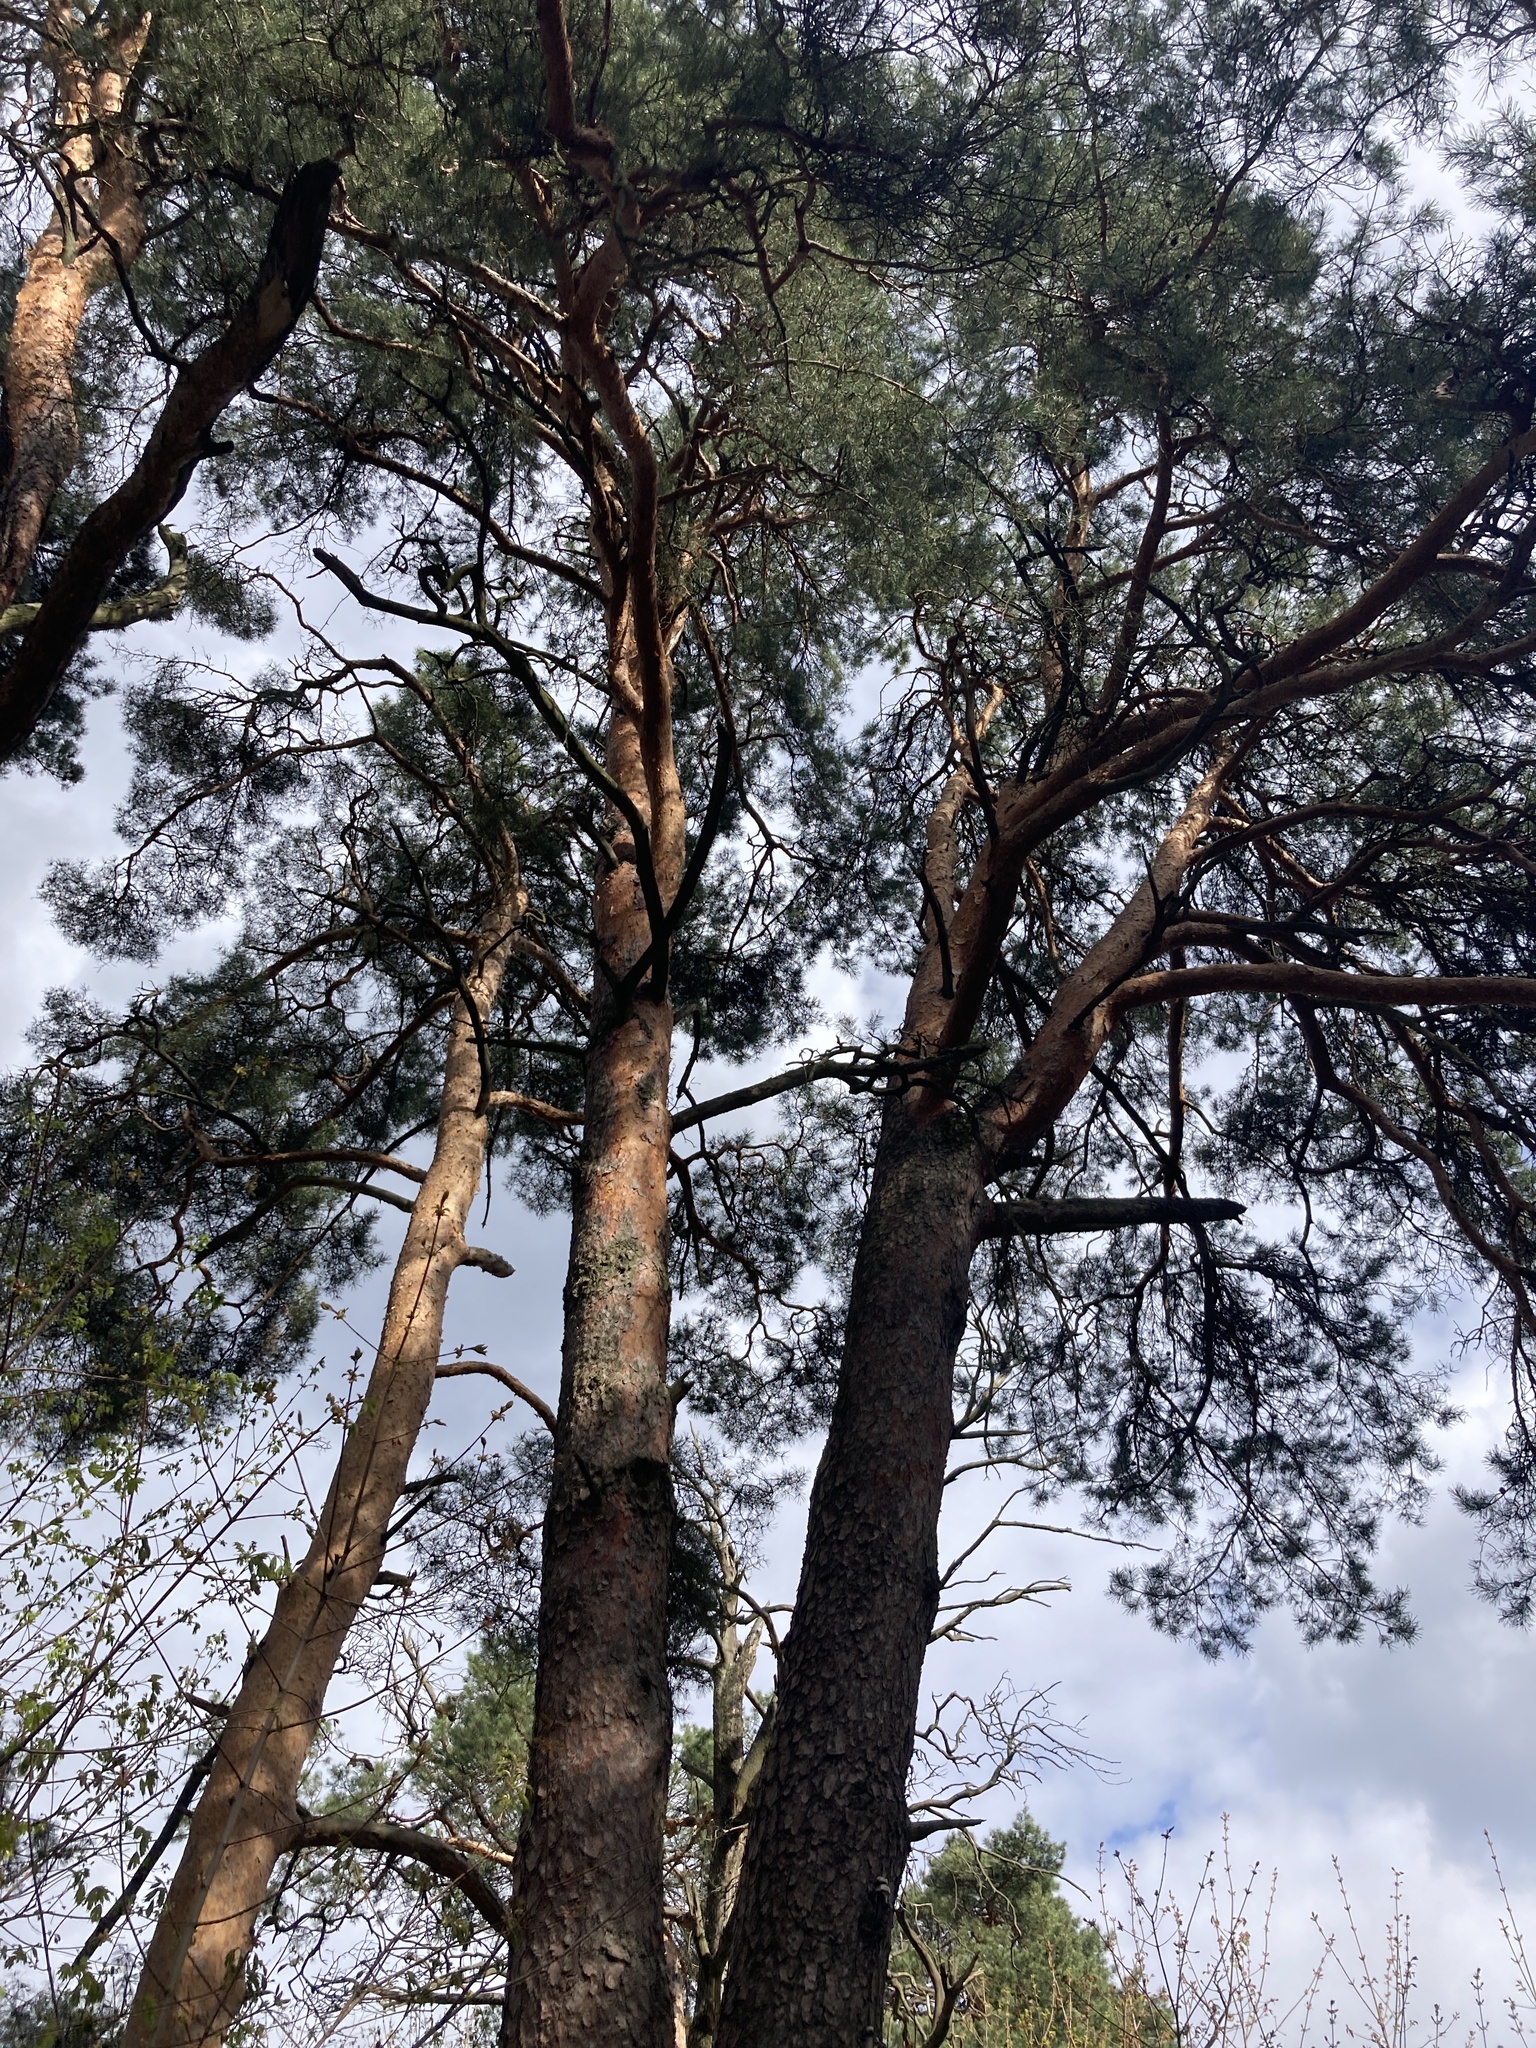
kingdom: Plantae
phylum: Tracheophyta
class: Pinopsida
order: Pinales
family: Pinaceae
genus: Pinus
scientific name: Pinus sylvestris
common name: Scots pine
